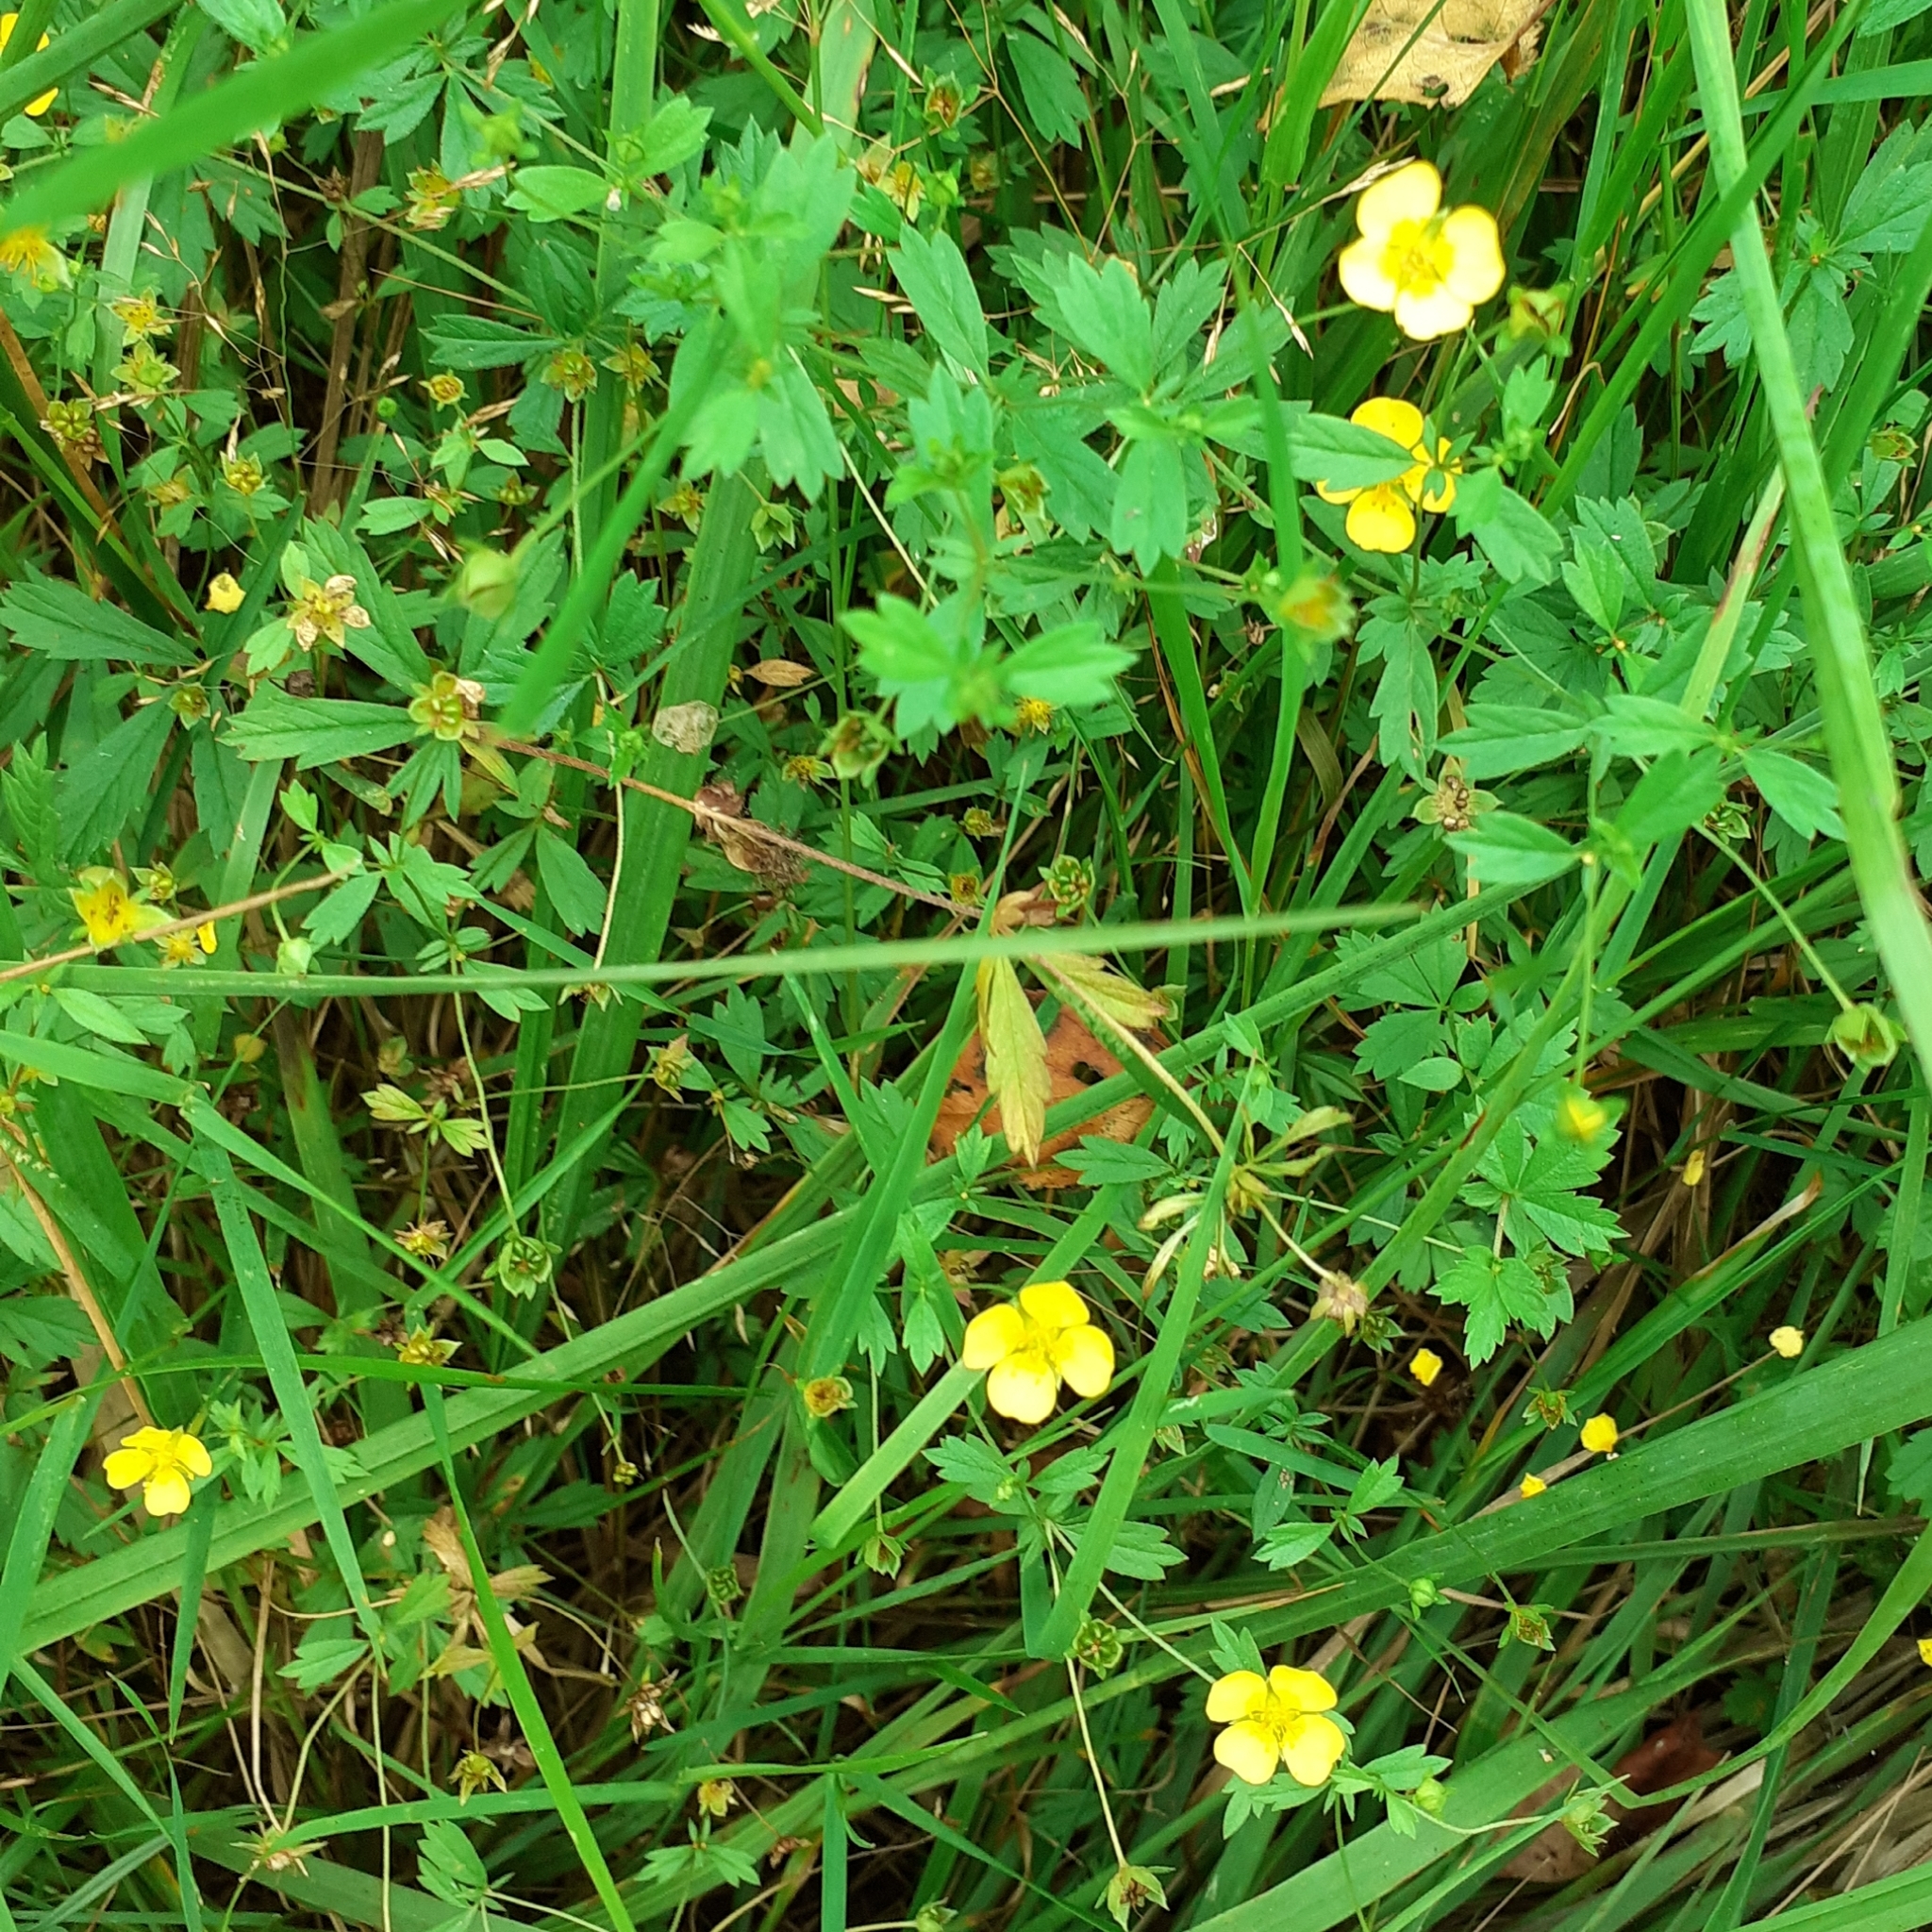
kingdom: Plantae
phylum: Tracheophyta
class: Magnoliopsida
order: Rosales
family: Rosaceae
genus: Potentilla
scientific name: Potentilla erecta
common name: Tormentil
